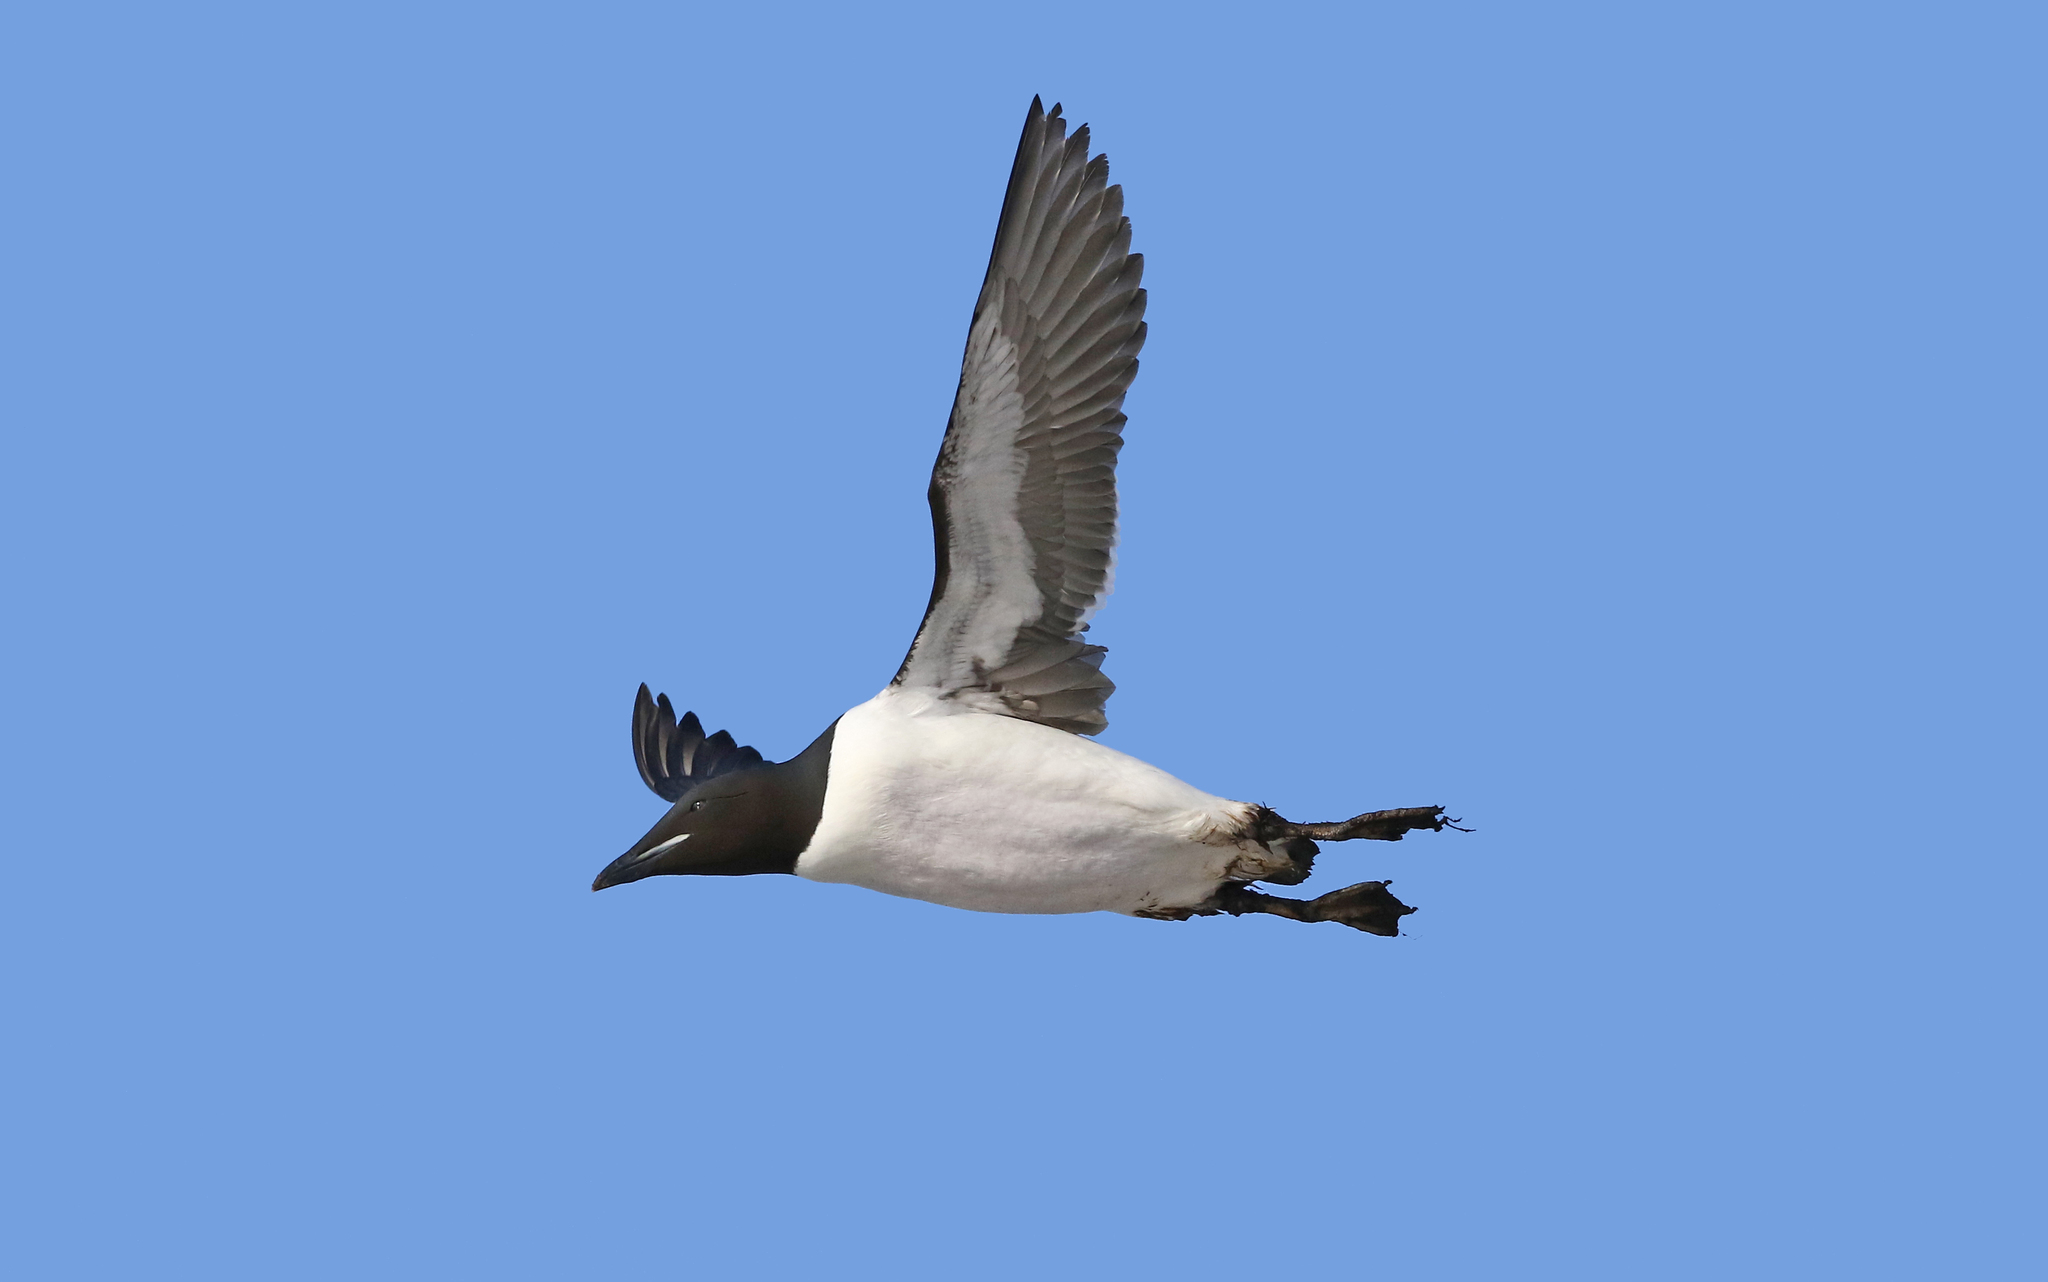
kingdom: Animalia
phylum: Chordata
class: Aves
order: Charadriiformes
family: Alcidae
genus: Uria
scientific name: Uria lomvia
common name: Thick-billed murre
